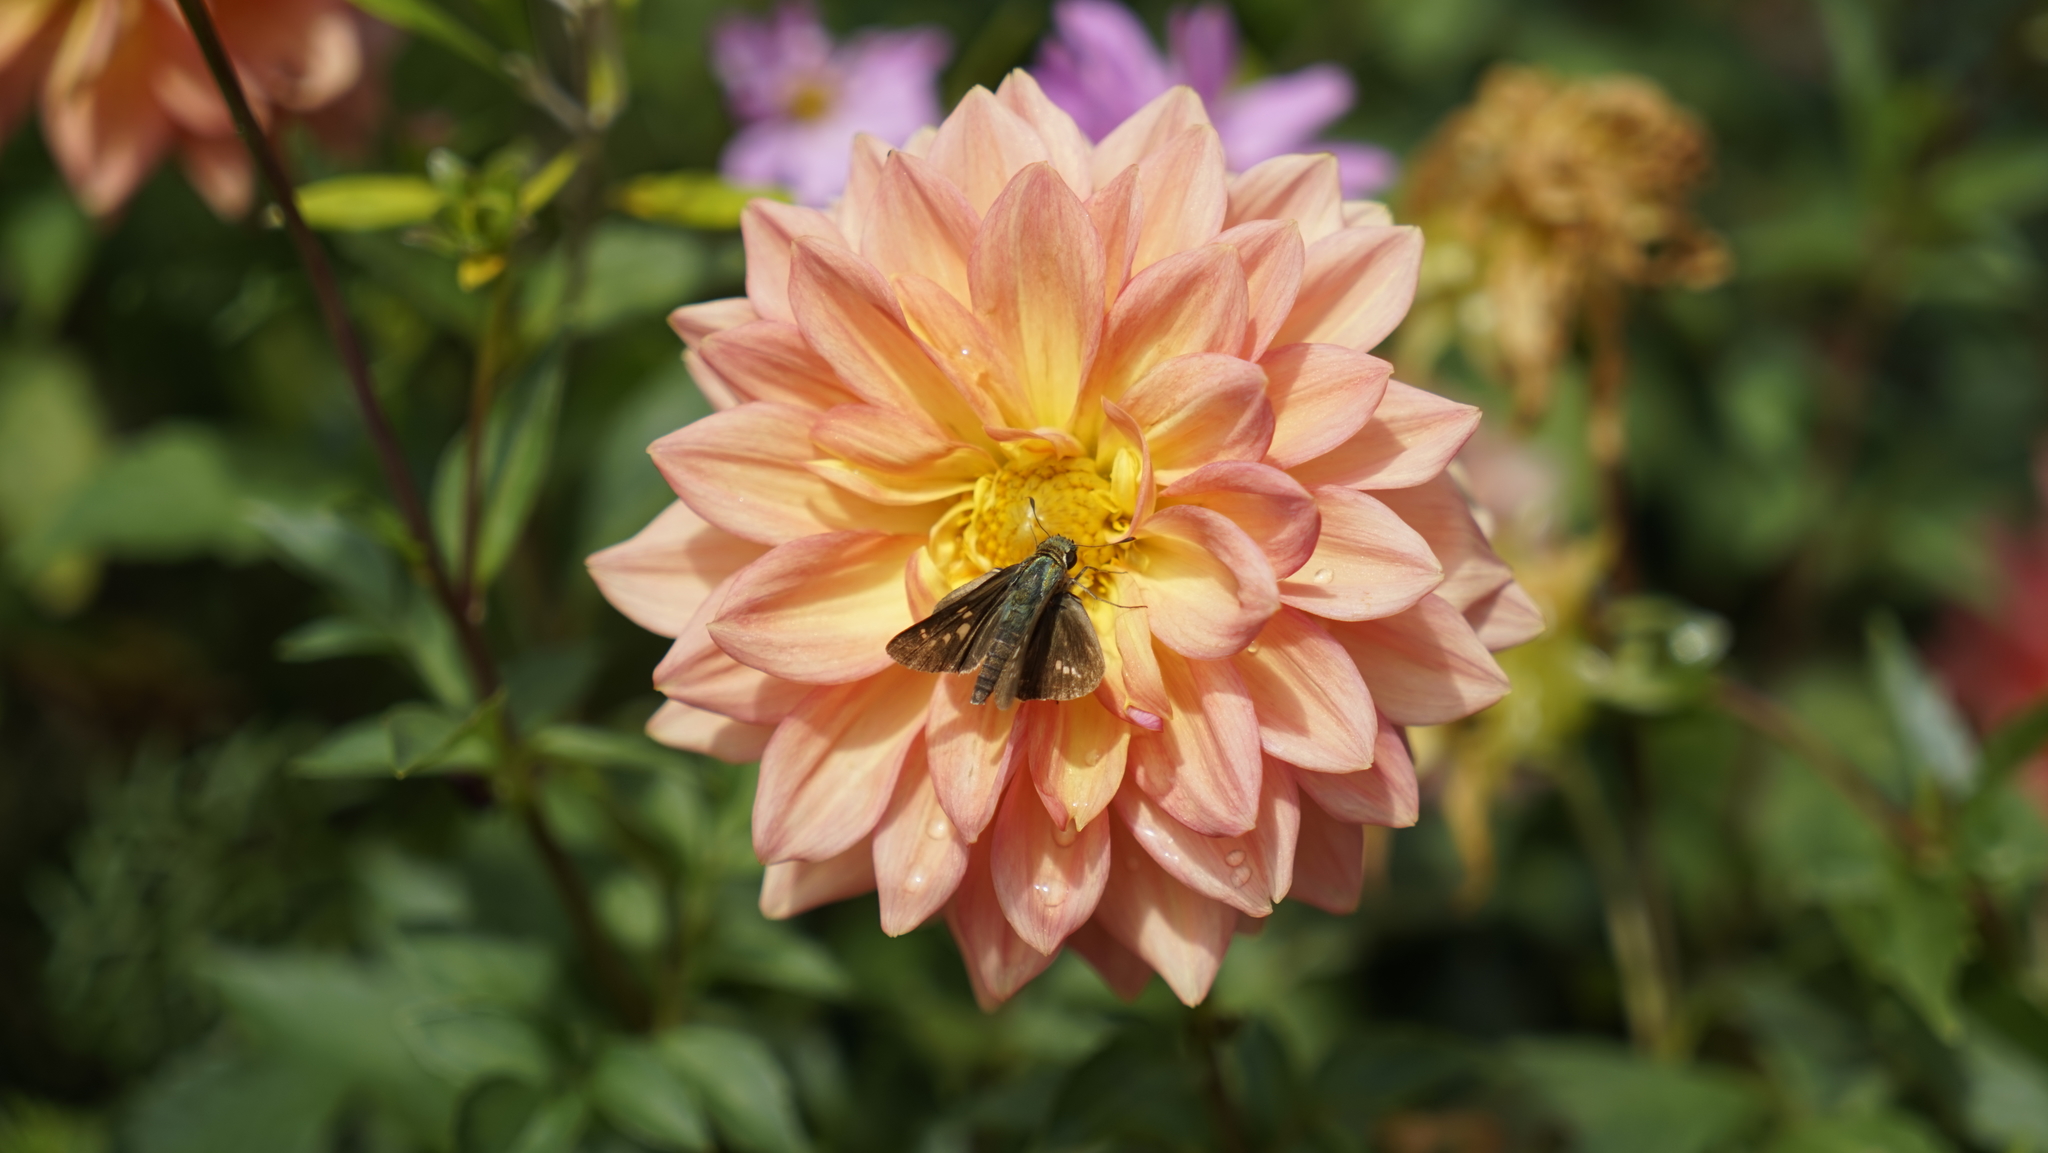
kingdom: Animalia
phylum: Arthropoda
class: Insecta
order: Lepidoptera
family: Hesperiidae
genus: Parnara
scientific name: Parnara guttatus
